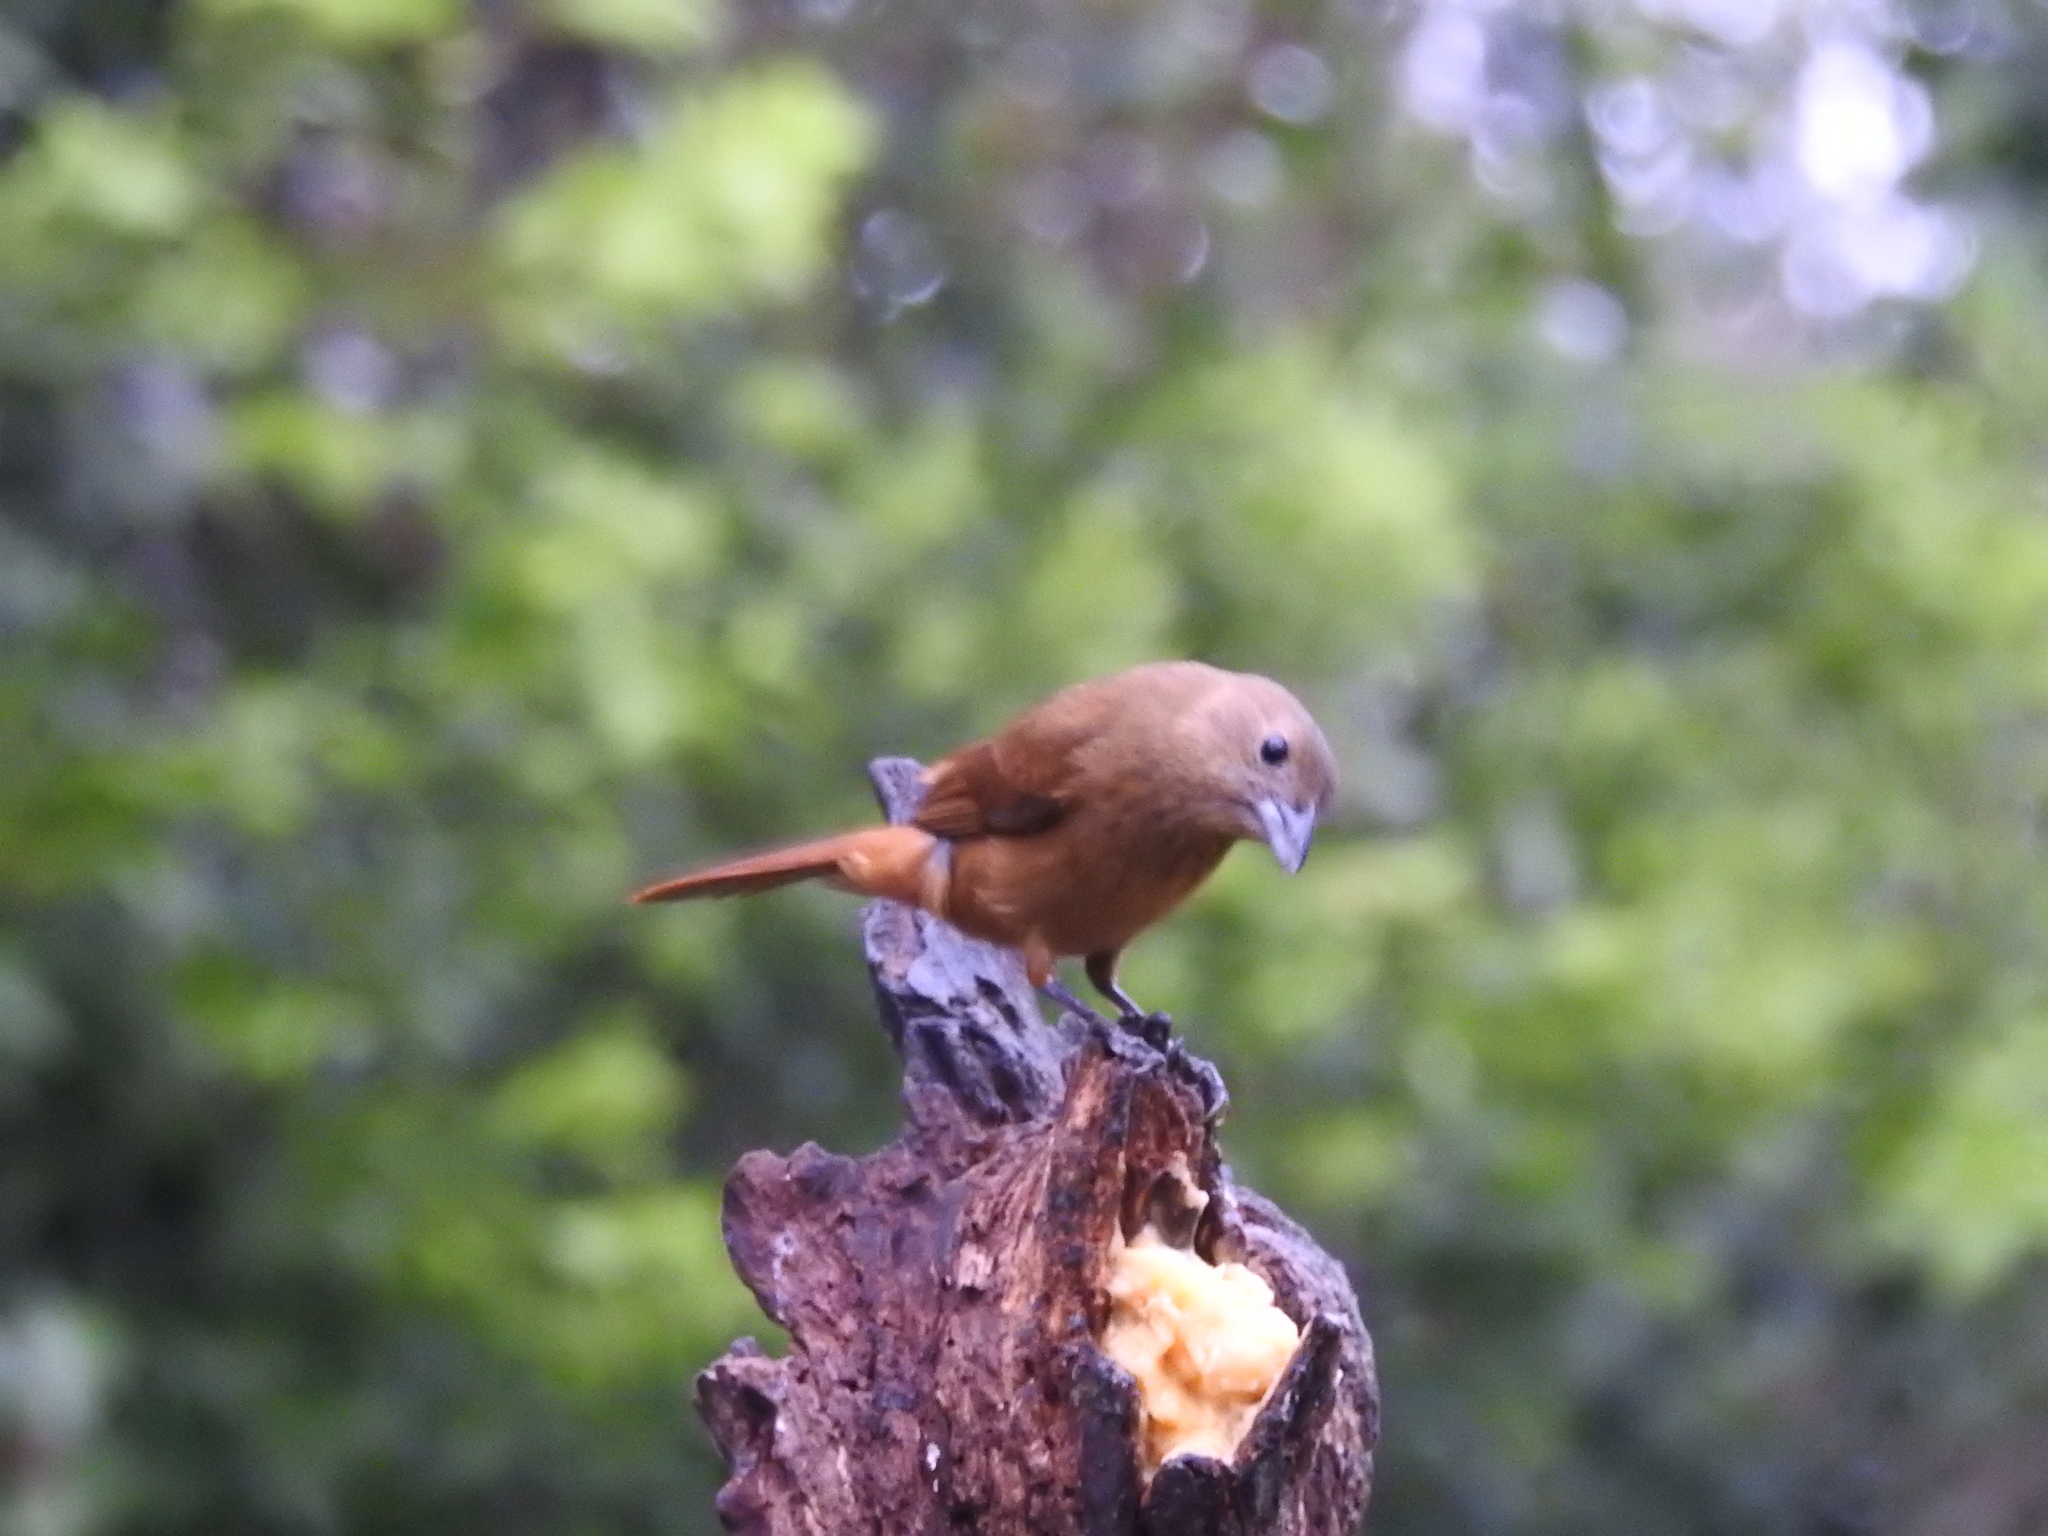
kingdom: Animalia
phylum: Chordata
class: Aves
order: Passeriformes
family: Thraupidae
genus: Tachyphonus
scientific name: Tachyphonus coronatus
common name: Ruby-crowned tanager
